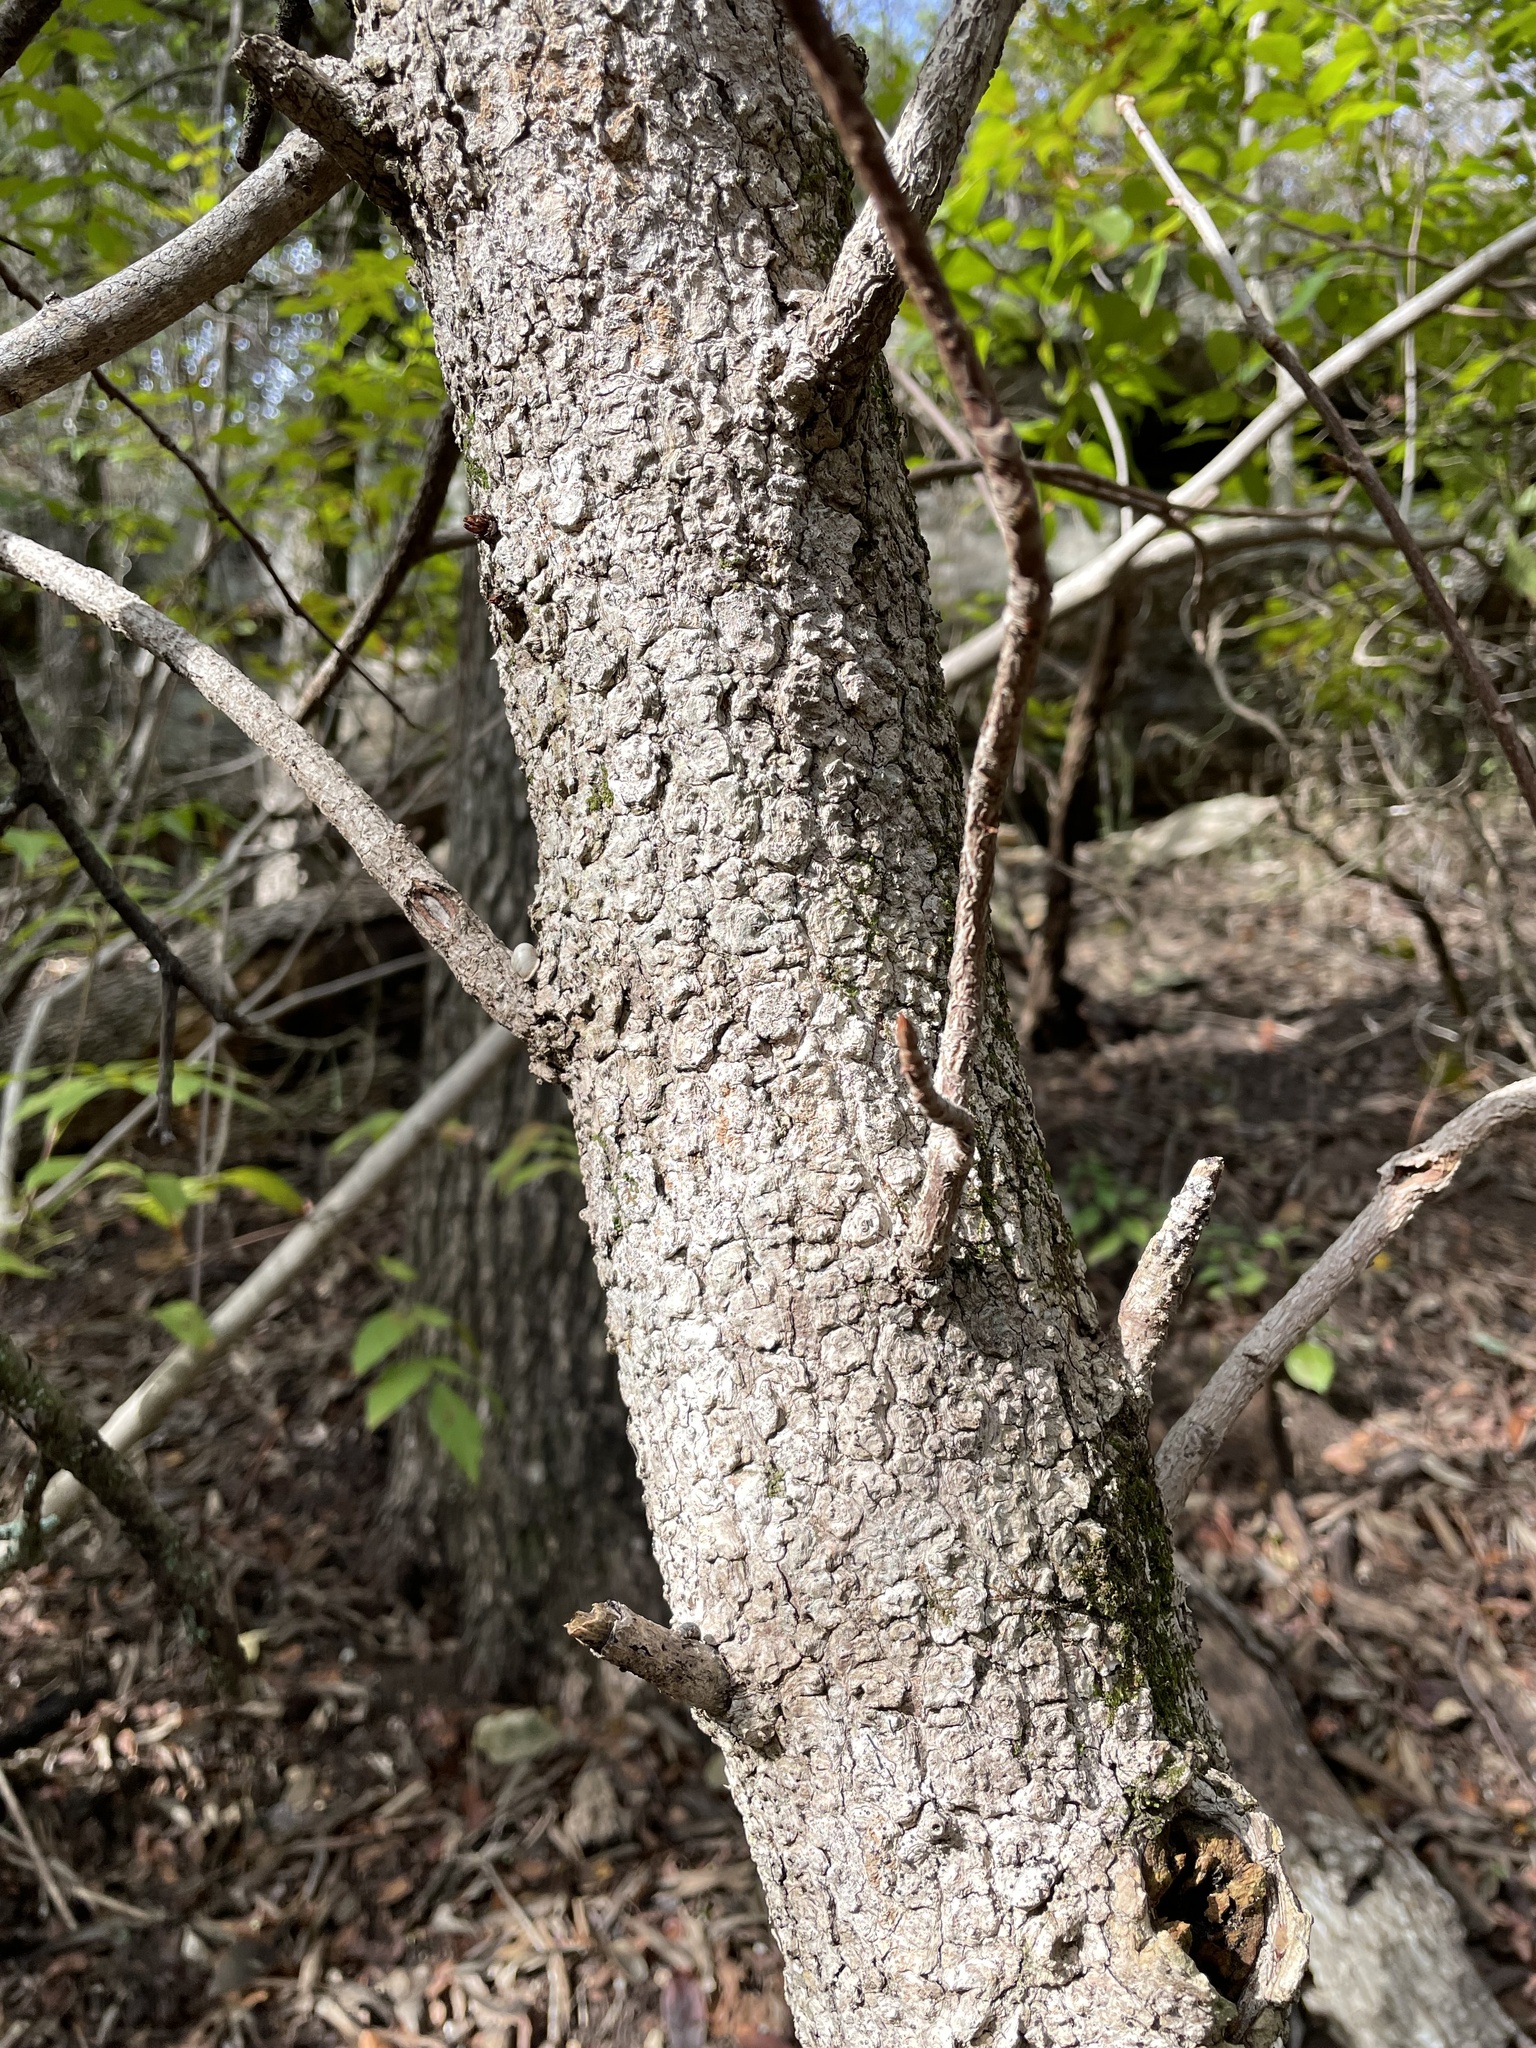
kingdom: Plantae
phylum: Tracheophyta
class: Magnoliopsida
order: Sapindales
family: Sapindaceae
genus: Aesculus
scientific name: Aesculus glabra
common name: Ohio buckeye
